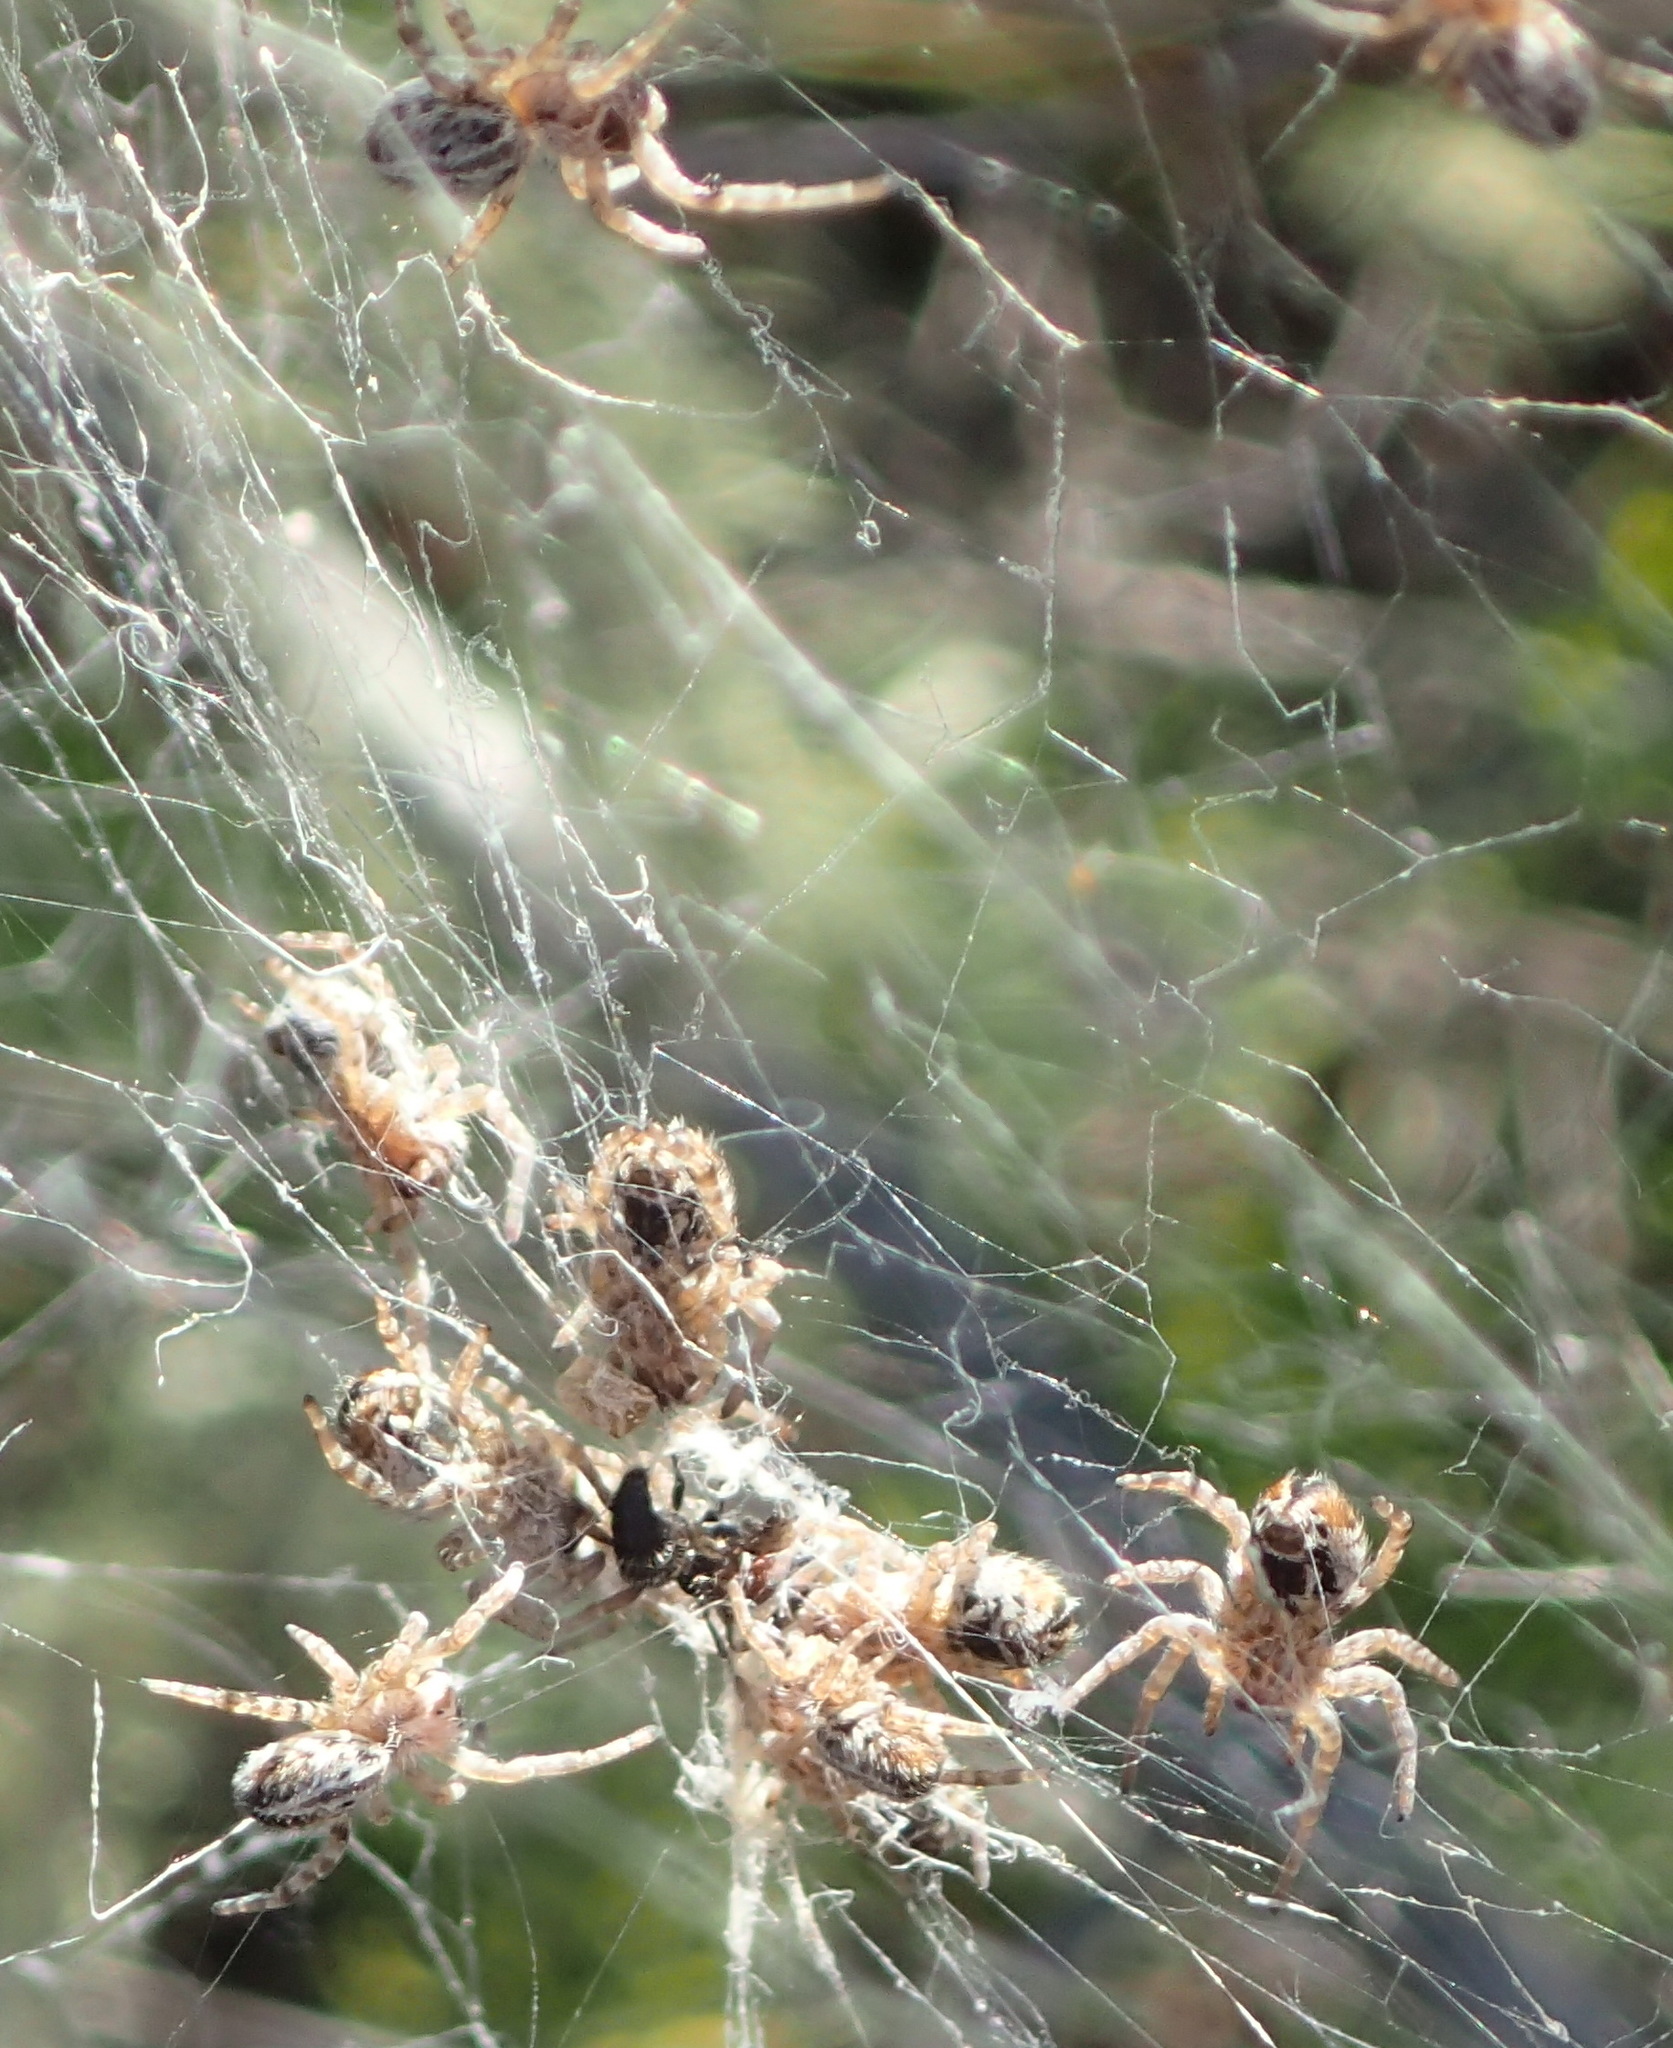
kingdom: Animalia
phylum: Arthropoda
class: Arachnida
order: Araneae
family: Eresidae
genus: Stegodyphus
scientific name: Stegodyphus dumicola
